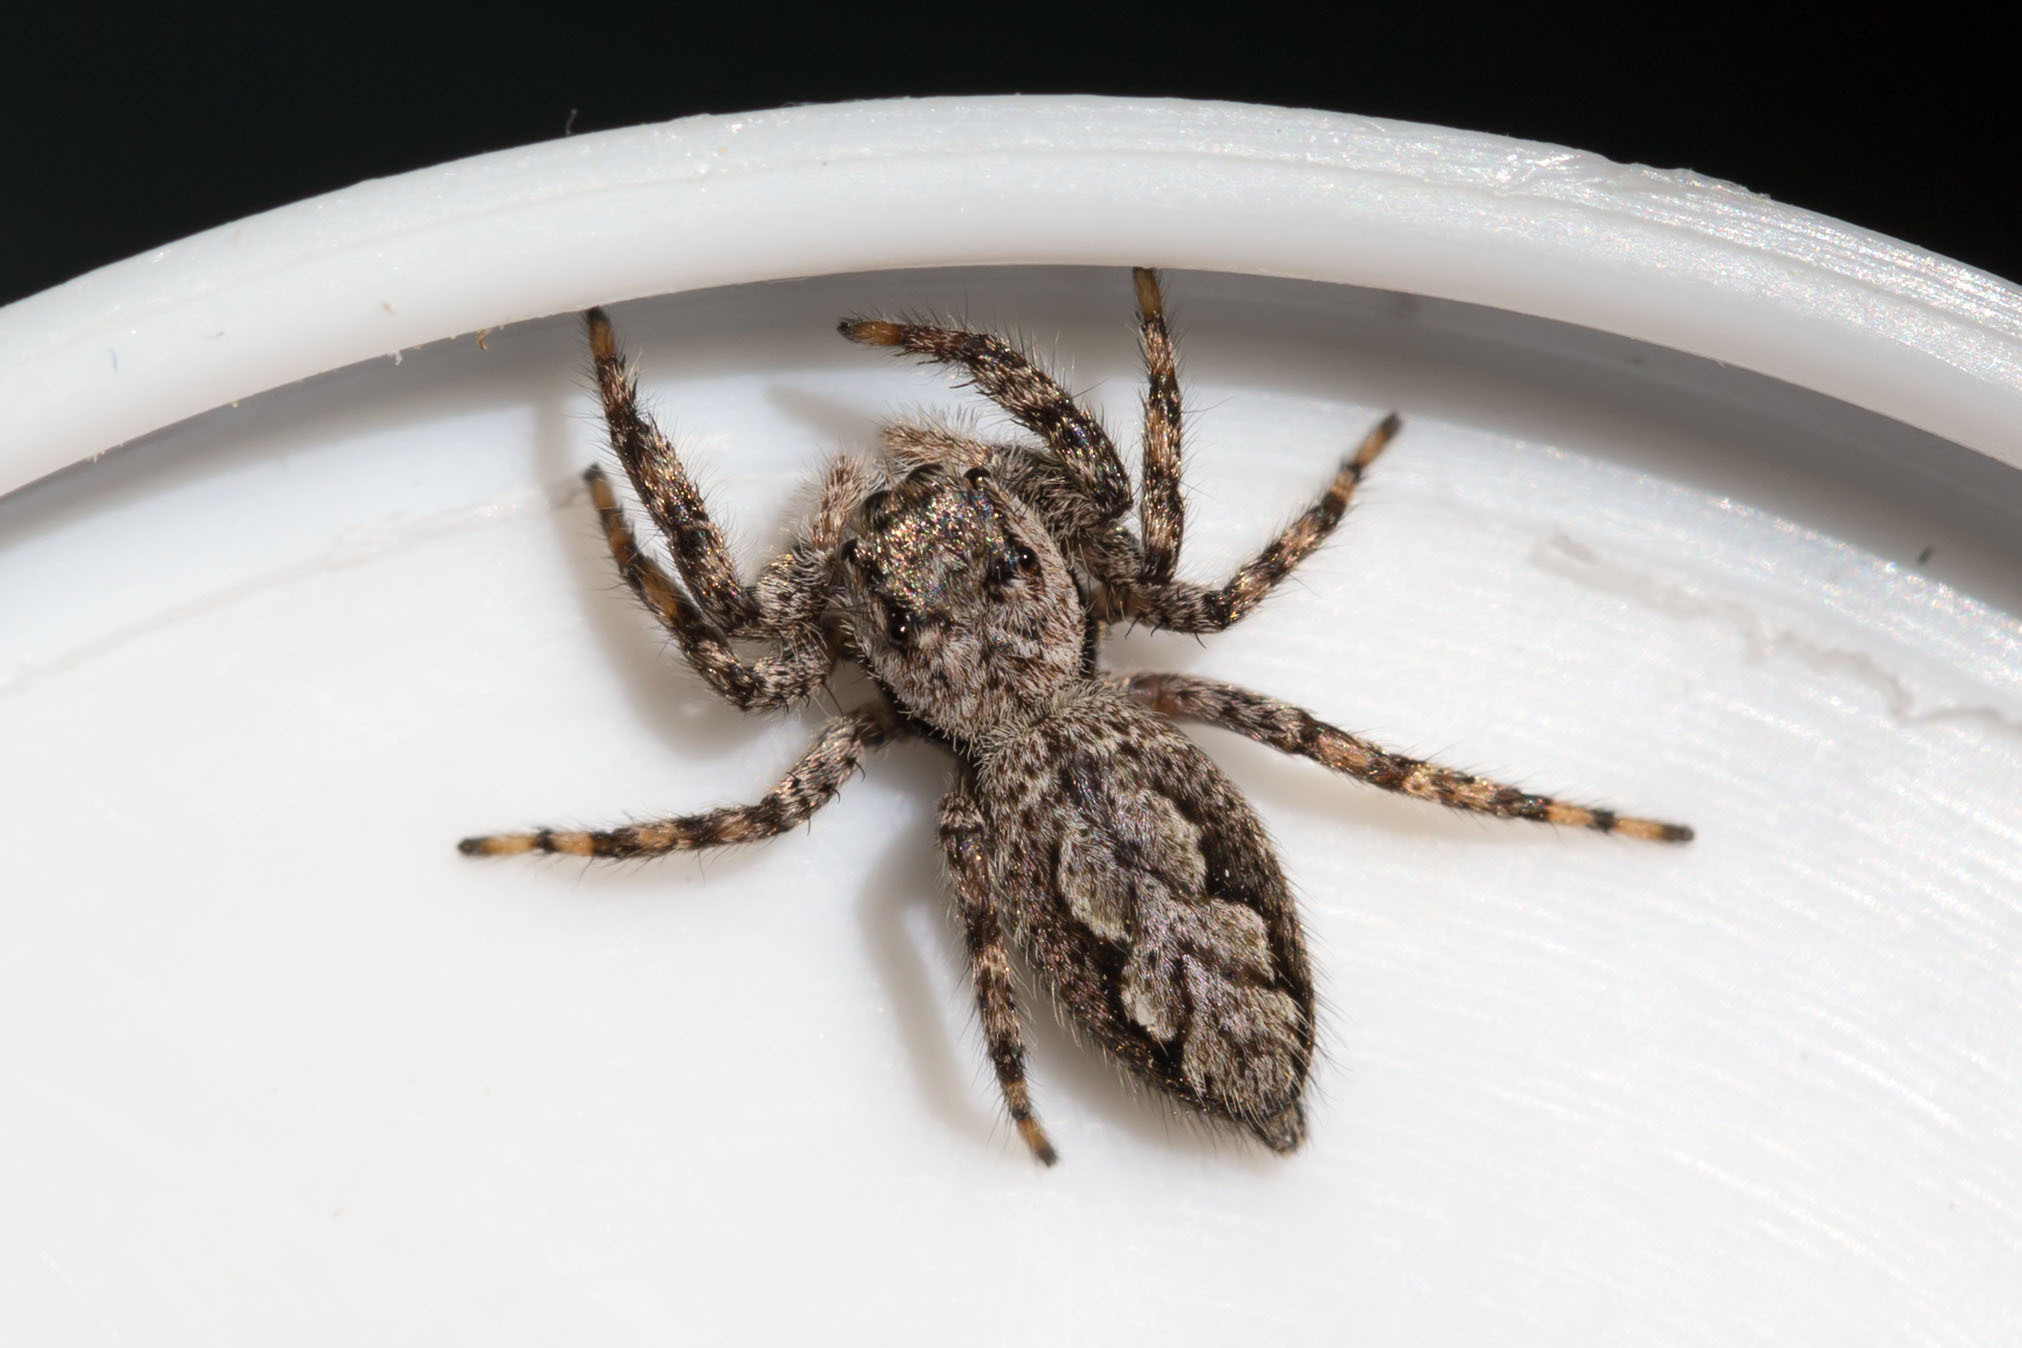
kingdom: Animalia
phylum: Arthropoda
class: Arachnida
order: Araneae
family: Salticidae
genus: Platycryptus
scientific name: Platycryptus undatus
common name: Tan jumping spider
